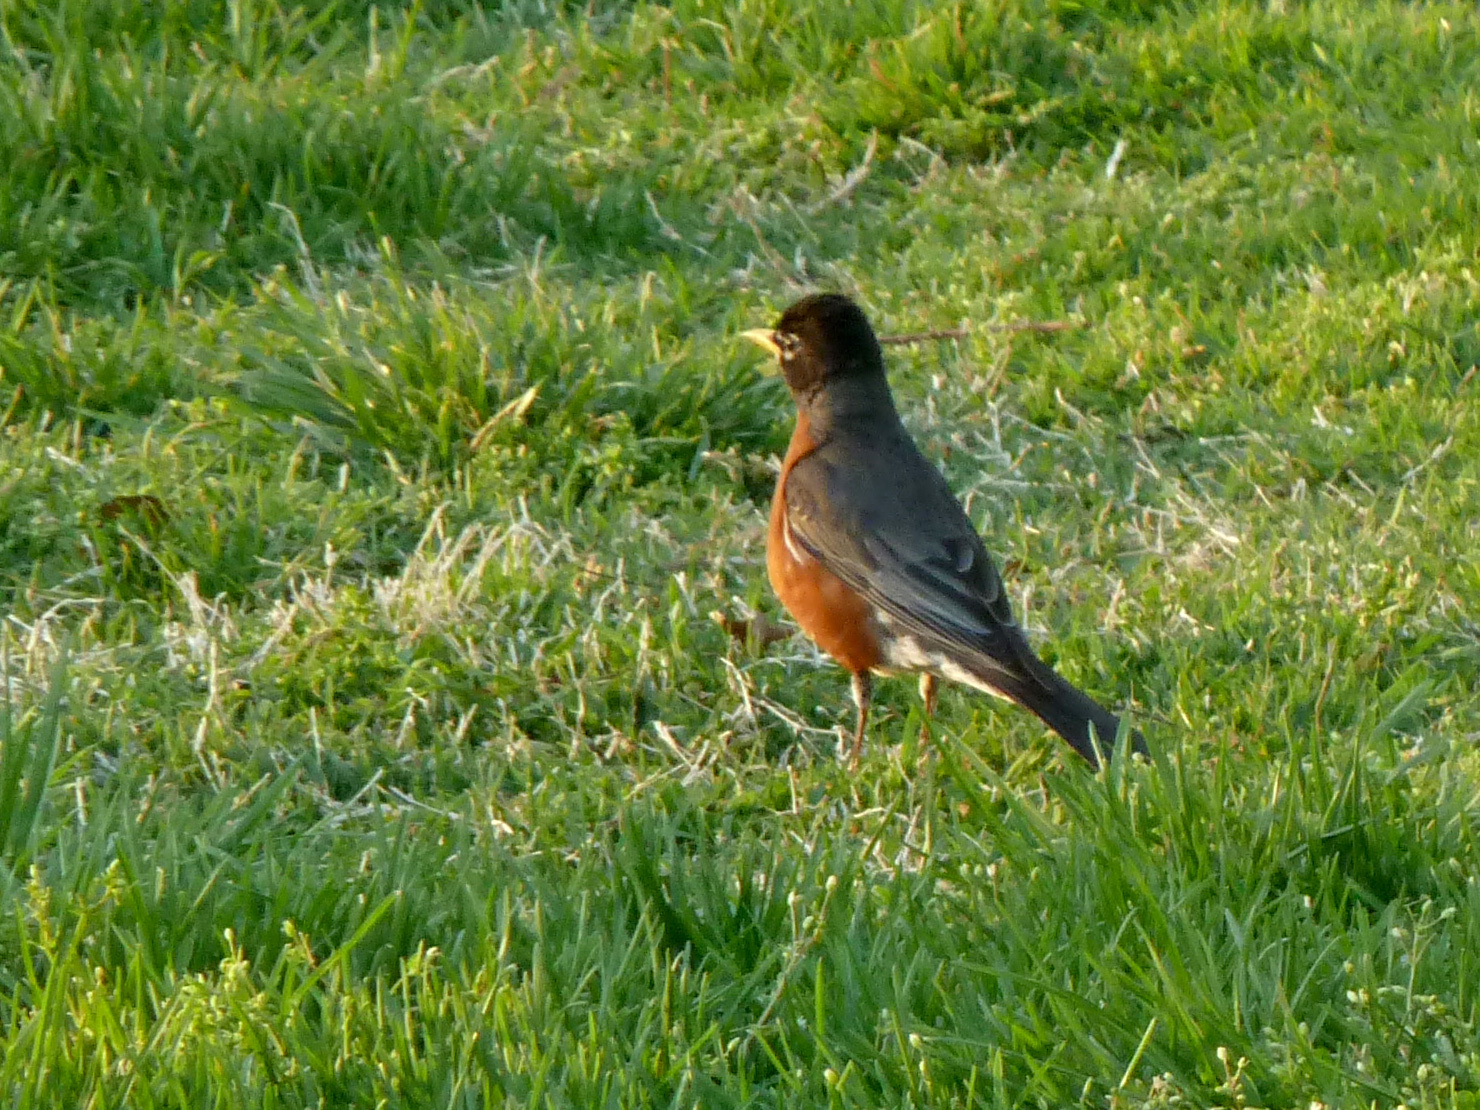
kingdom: Animalia
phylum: Chordata
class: Aves
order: Passeriformes
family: Turdidae
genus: Turdus
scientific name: Turdus migratorius
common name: American robin
